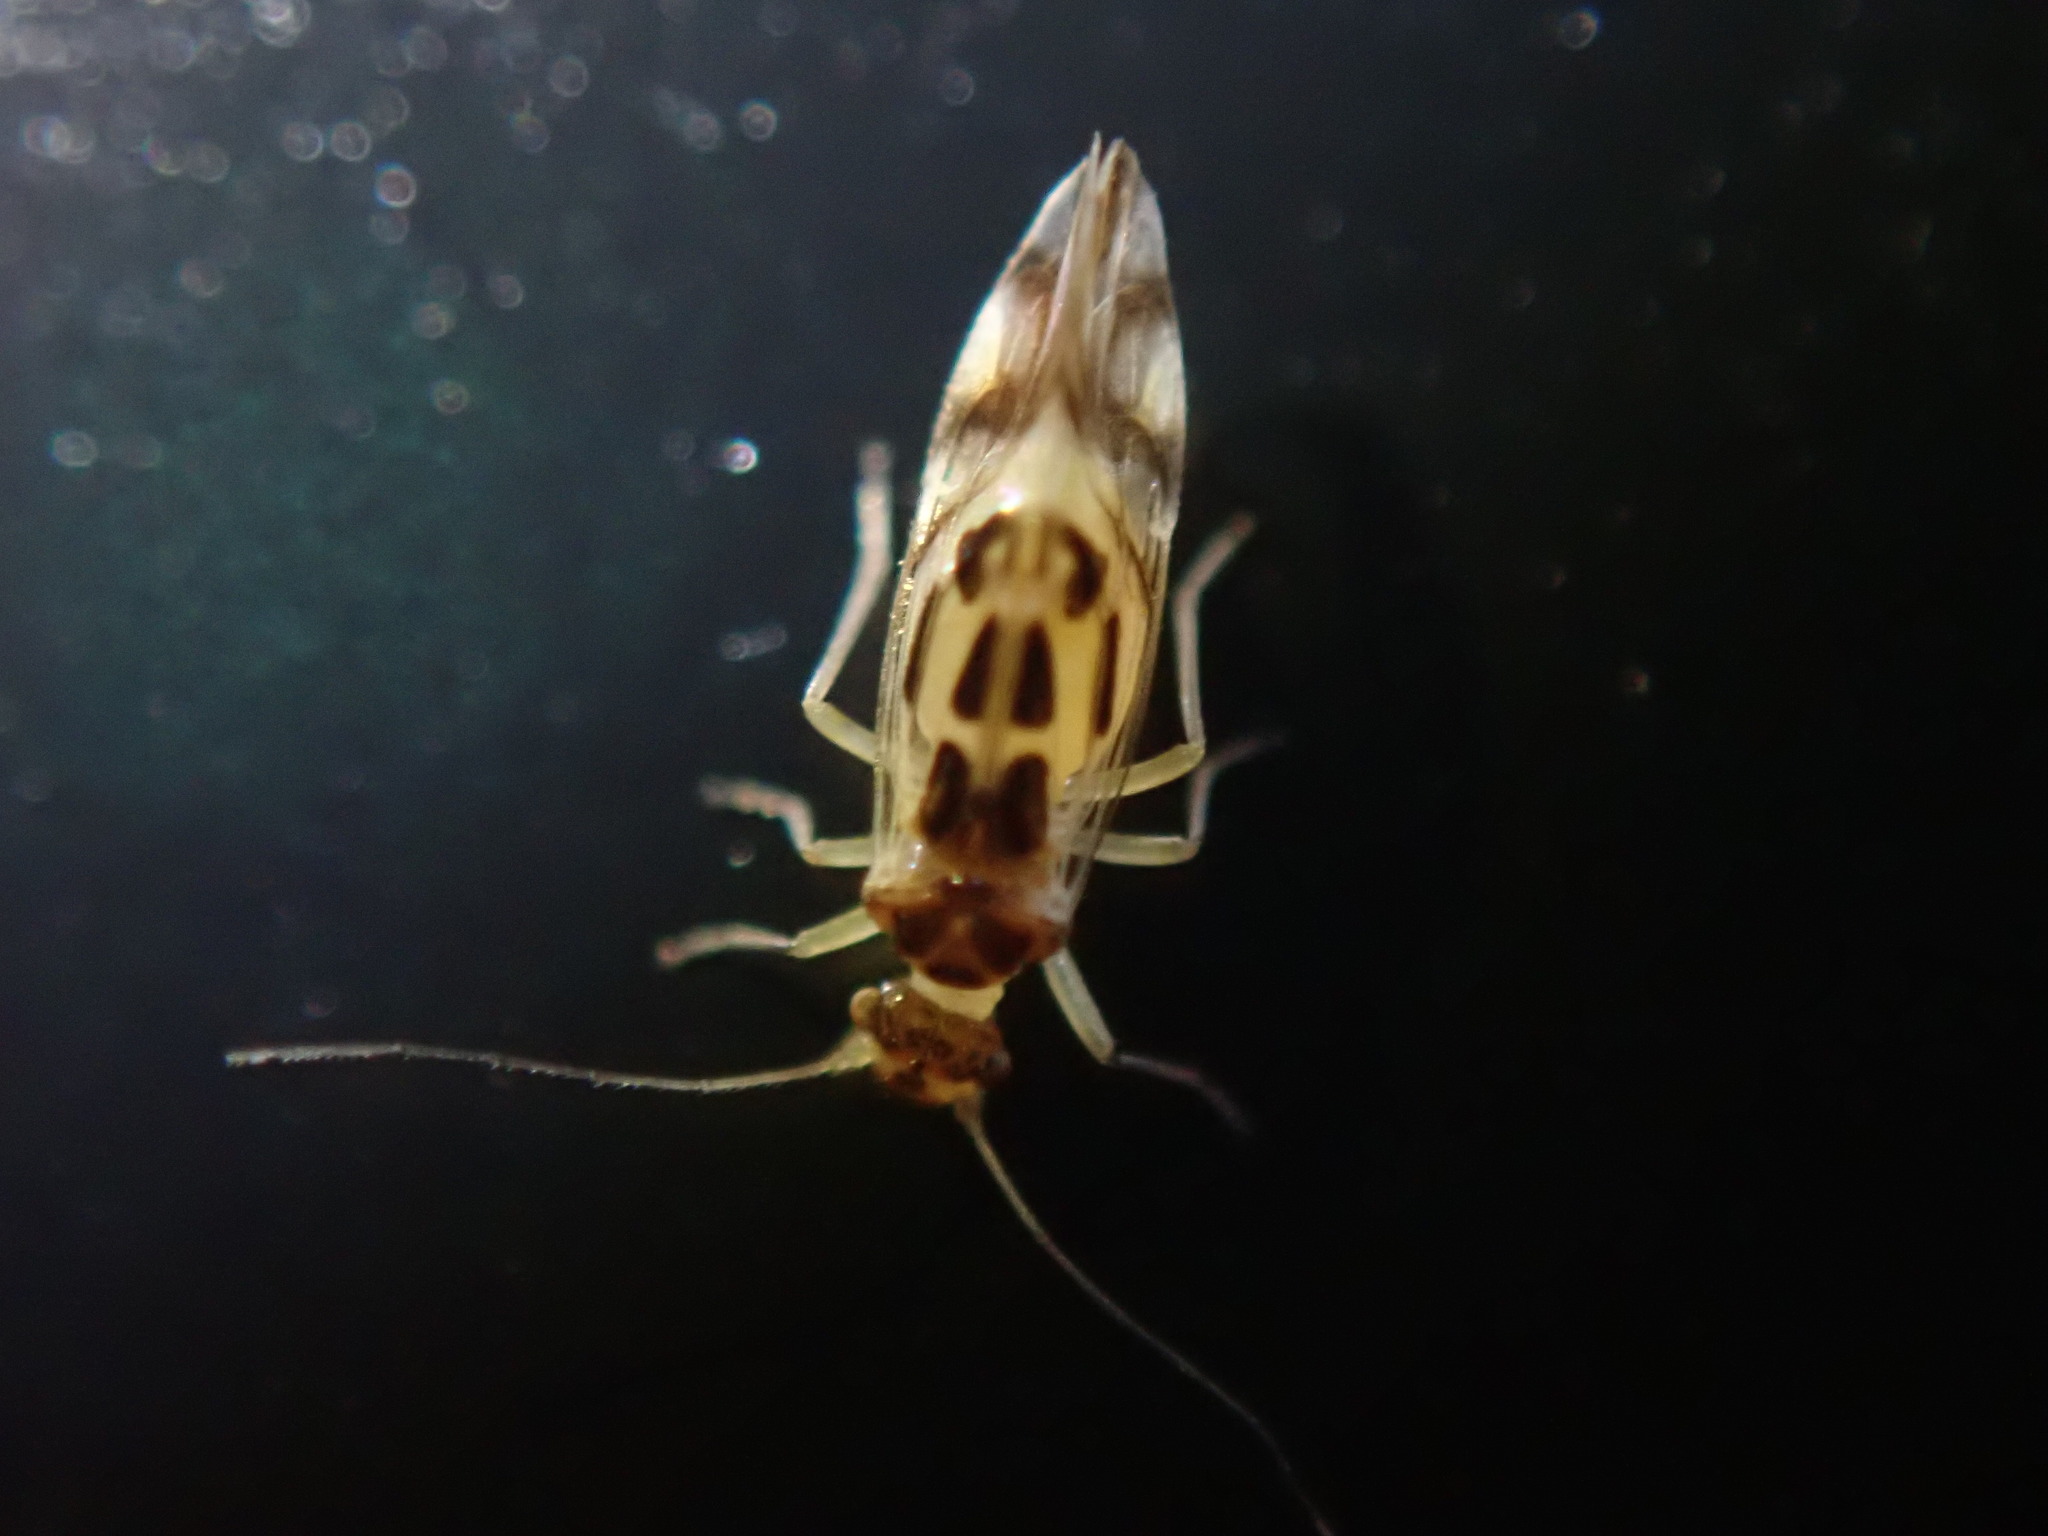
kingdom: Animalia
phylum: Arthropoda
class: Insecta
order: Psocodea
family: Stenopsocidae
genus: Graphopsocus
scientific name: Graphopsocus cruciatus
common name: Lizard bark louse
